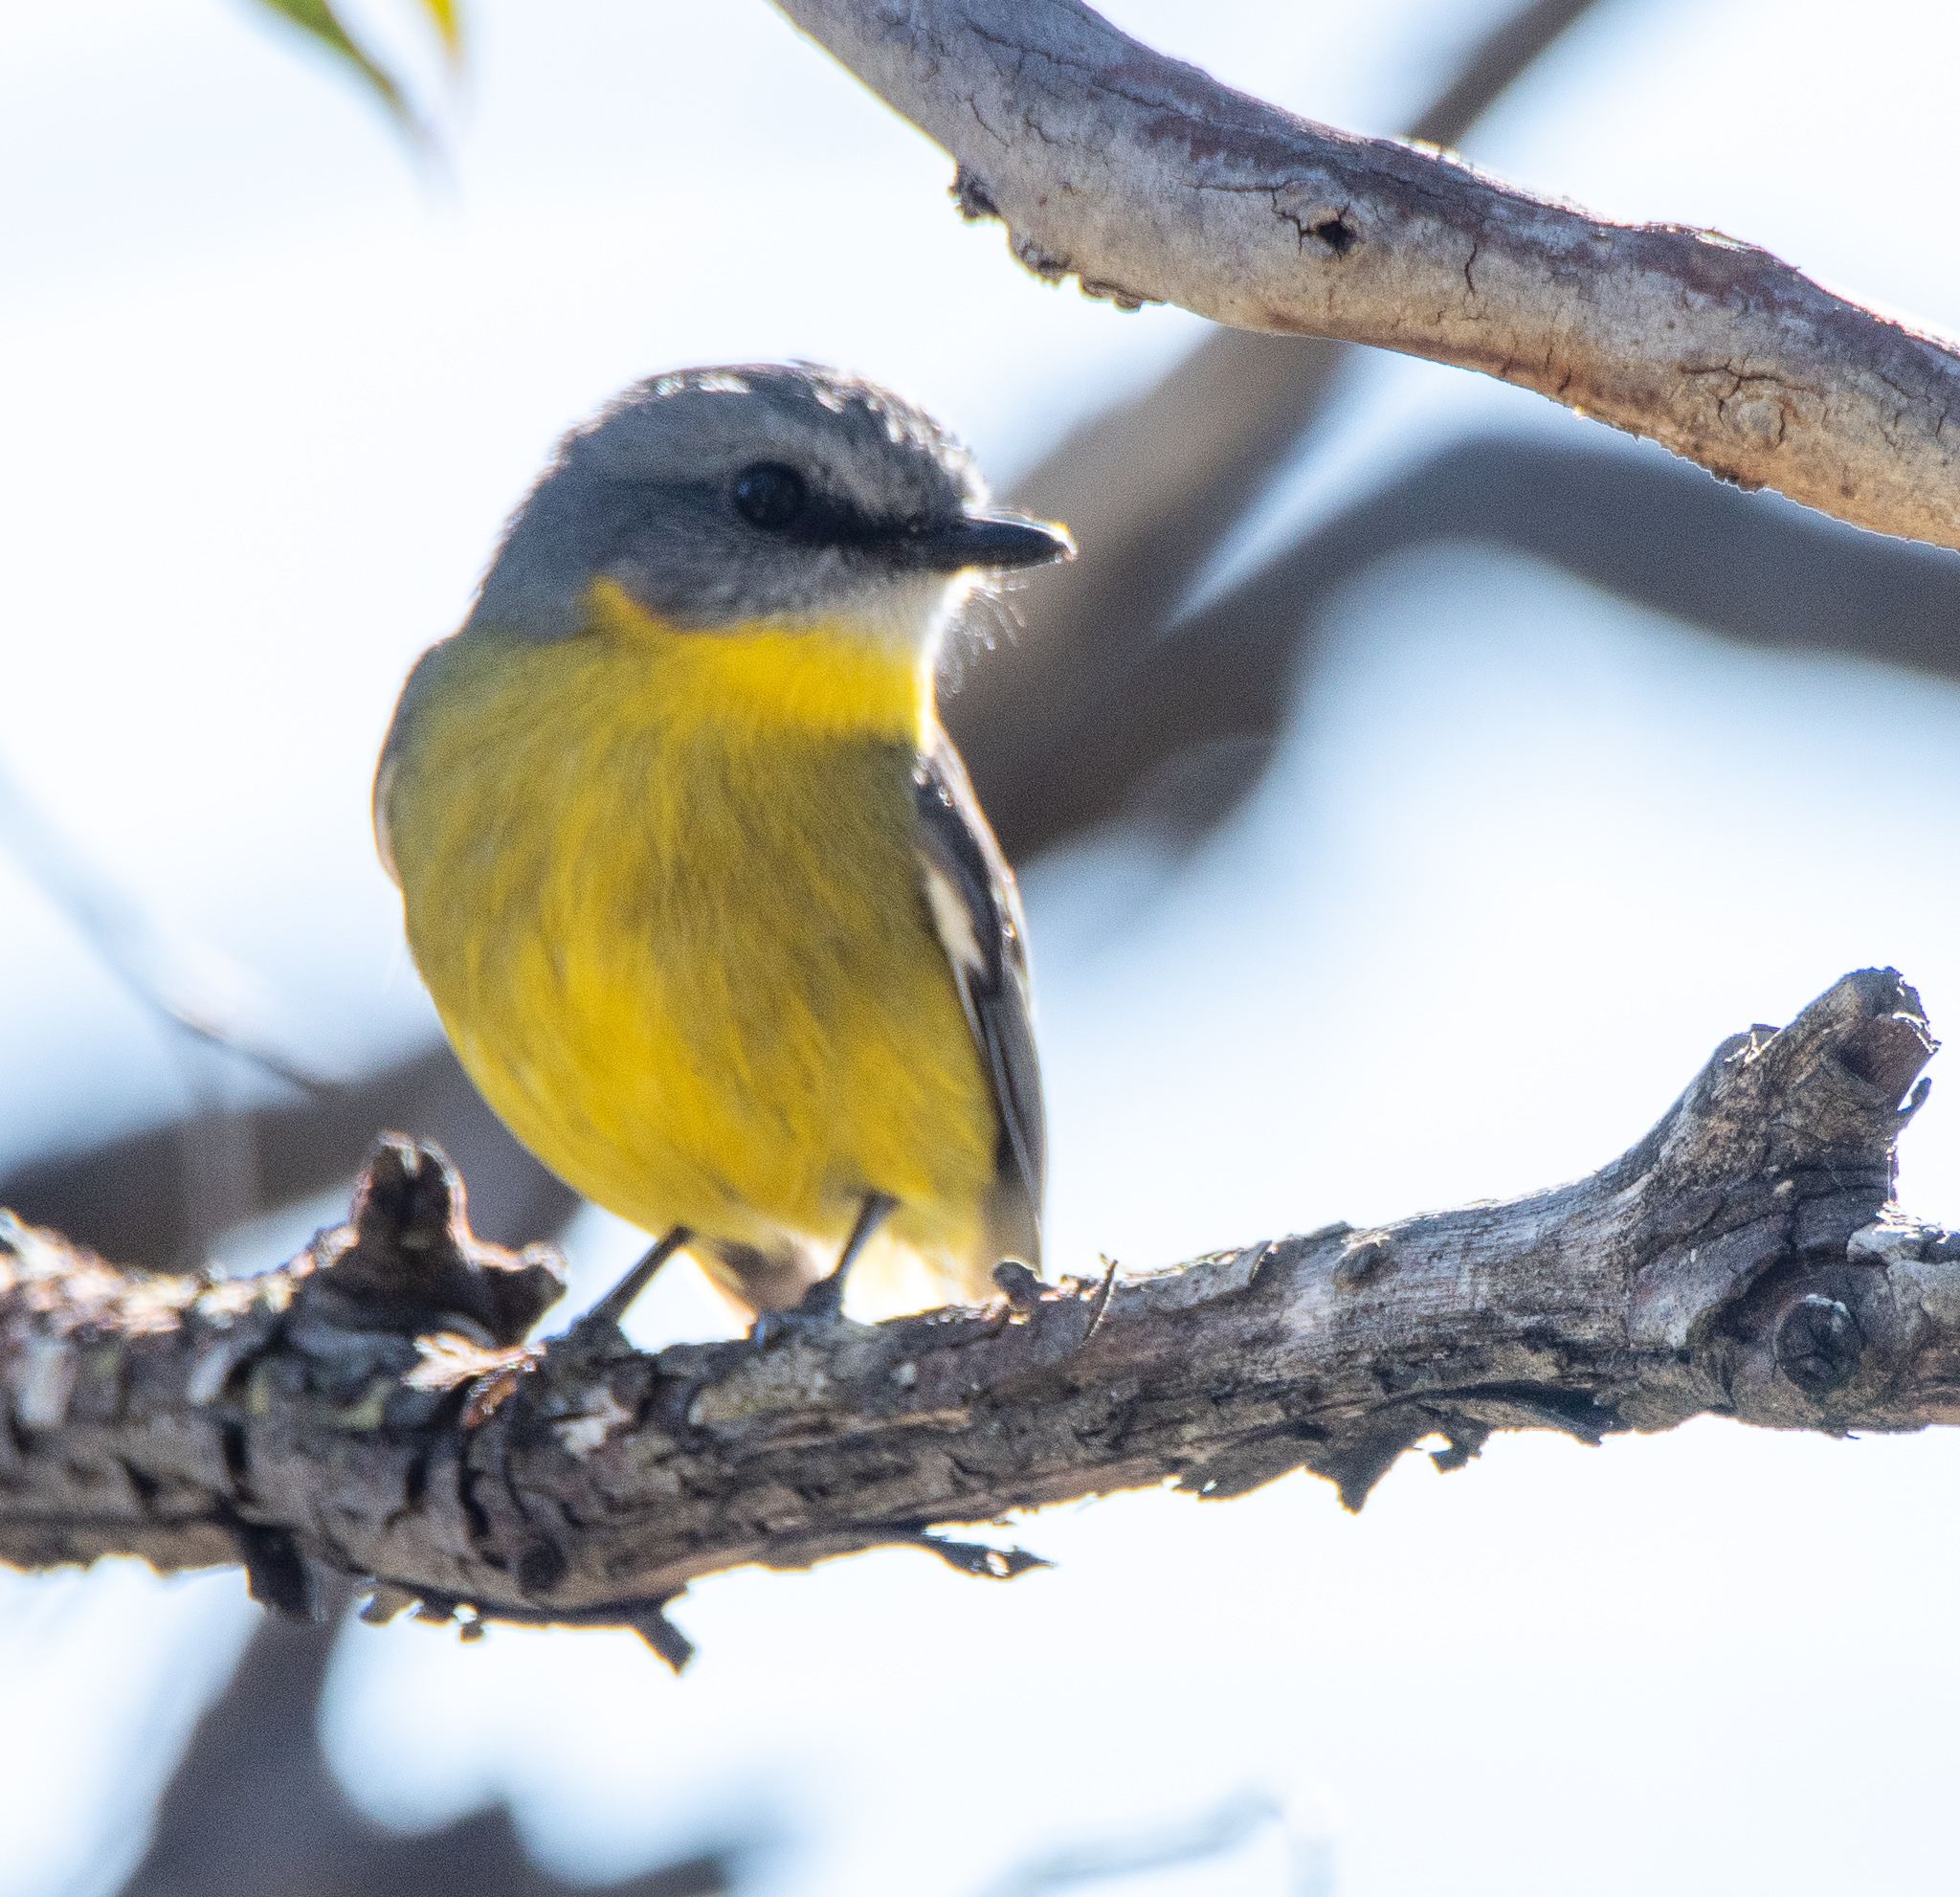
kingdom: Animalia
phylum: Chordata
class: Aves
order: Passeriformes
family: Petroicidae
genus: Eopsaltria
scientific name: Eopsaltria australis
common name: Eastern yellow robin
